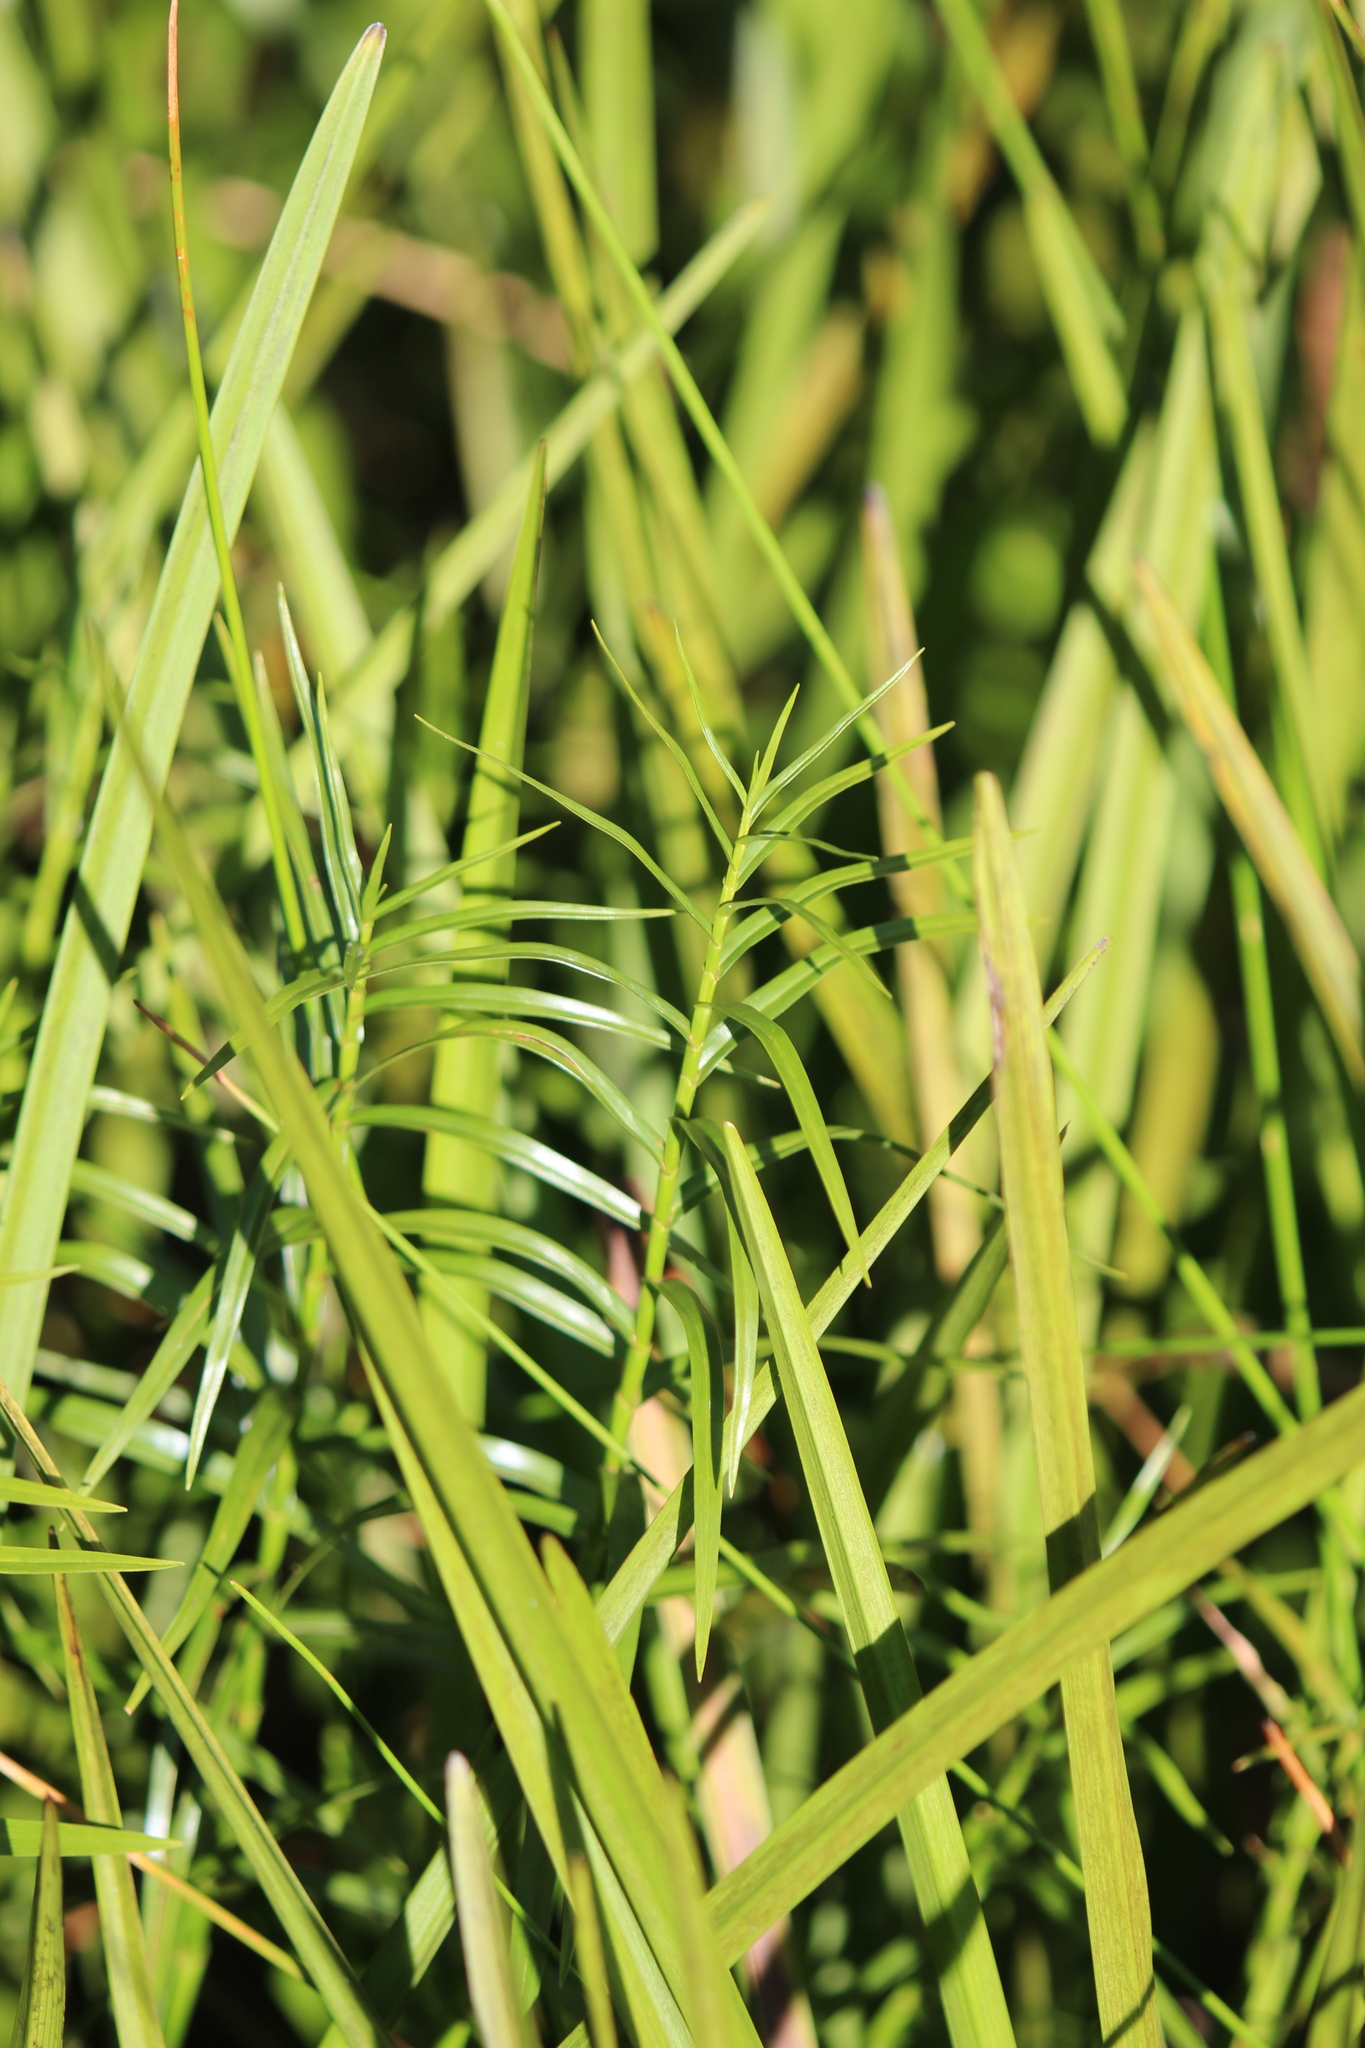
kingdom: Plantae
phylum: Tracheophyta
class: Liliopsida
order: Poales
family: Cyperaceae
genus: Dulichium
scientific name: Dulichium arundinaceum
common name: Three-way sedge
